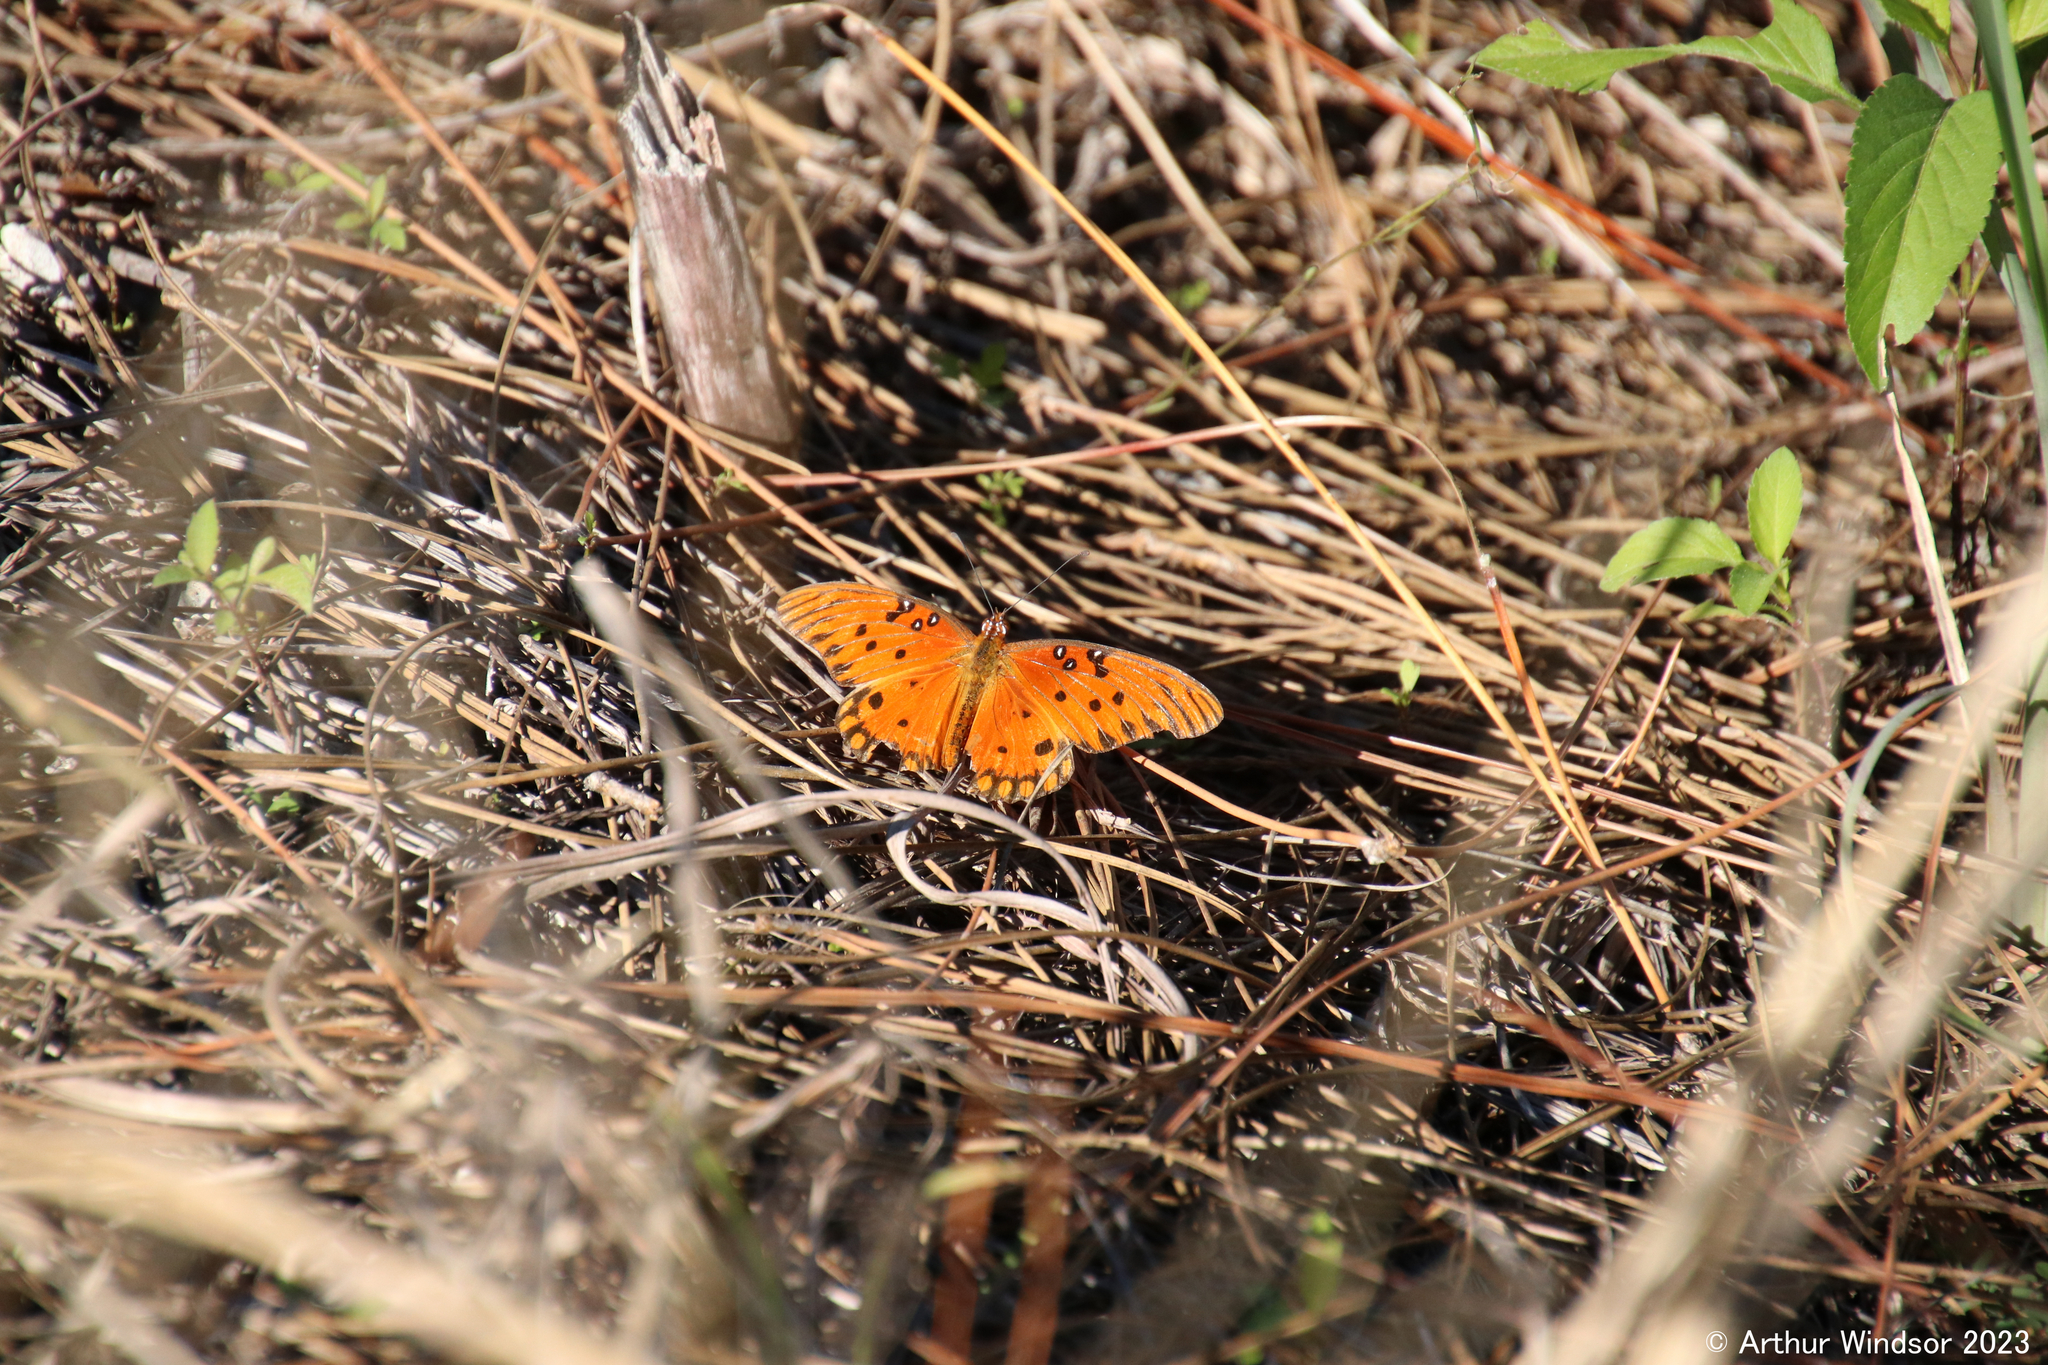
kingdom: Animalia
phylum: Arthropoda
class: Insecta
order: Lepidoptera
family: Nymphalidae
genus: Dione
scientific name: Dione vanillae
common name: Gulf fritillary
